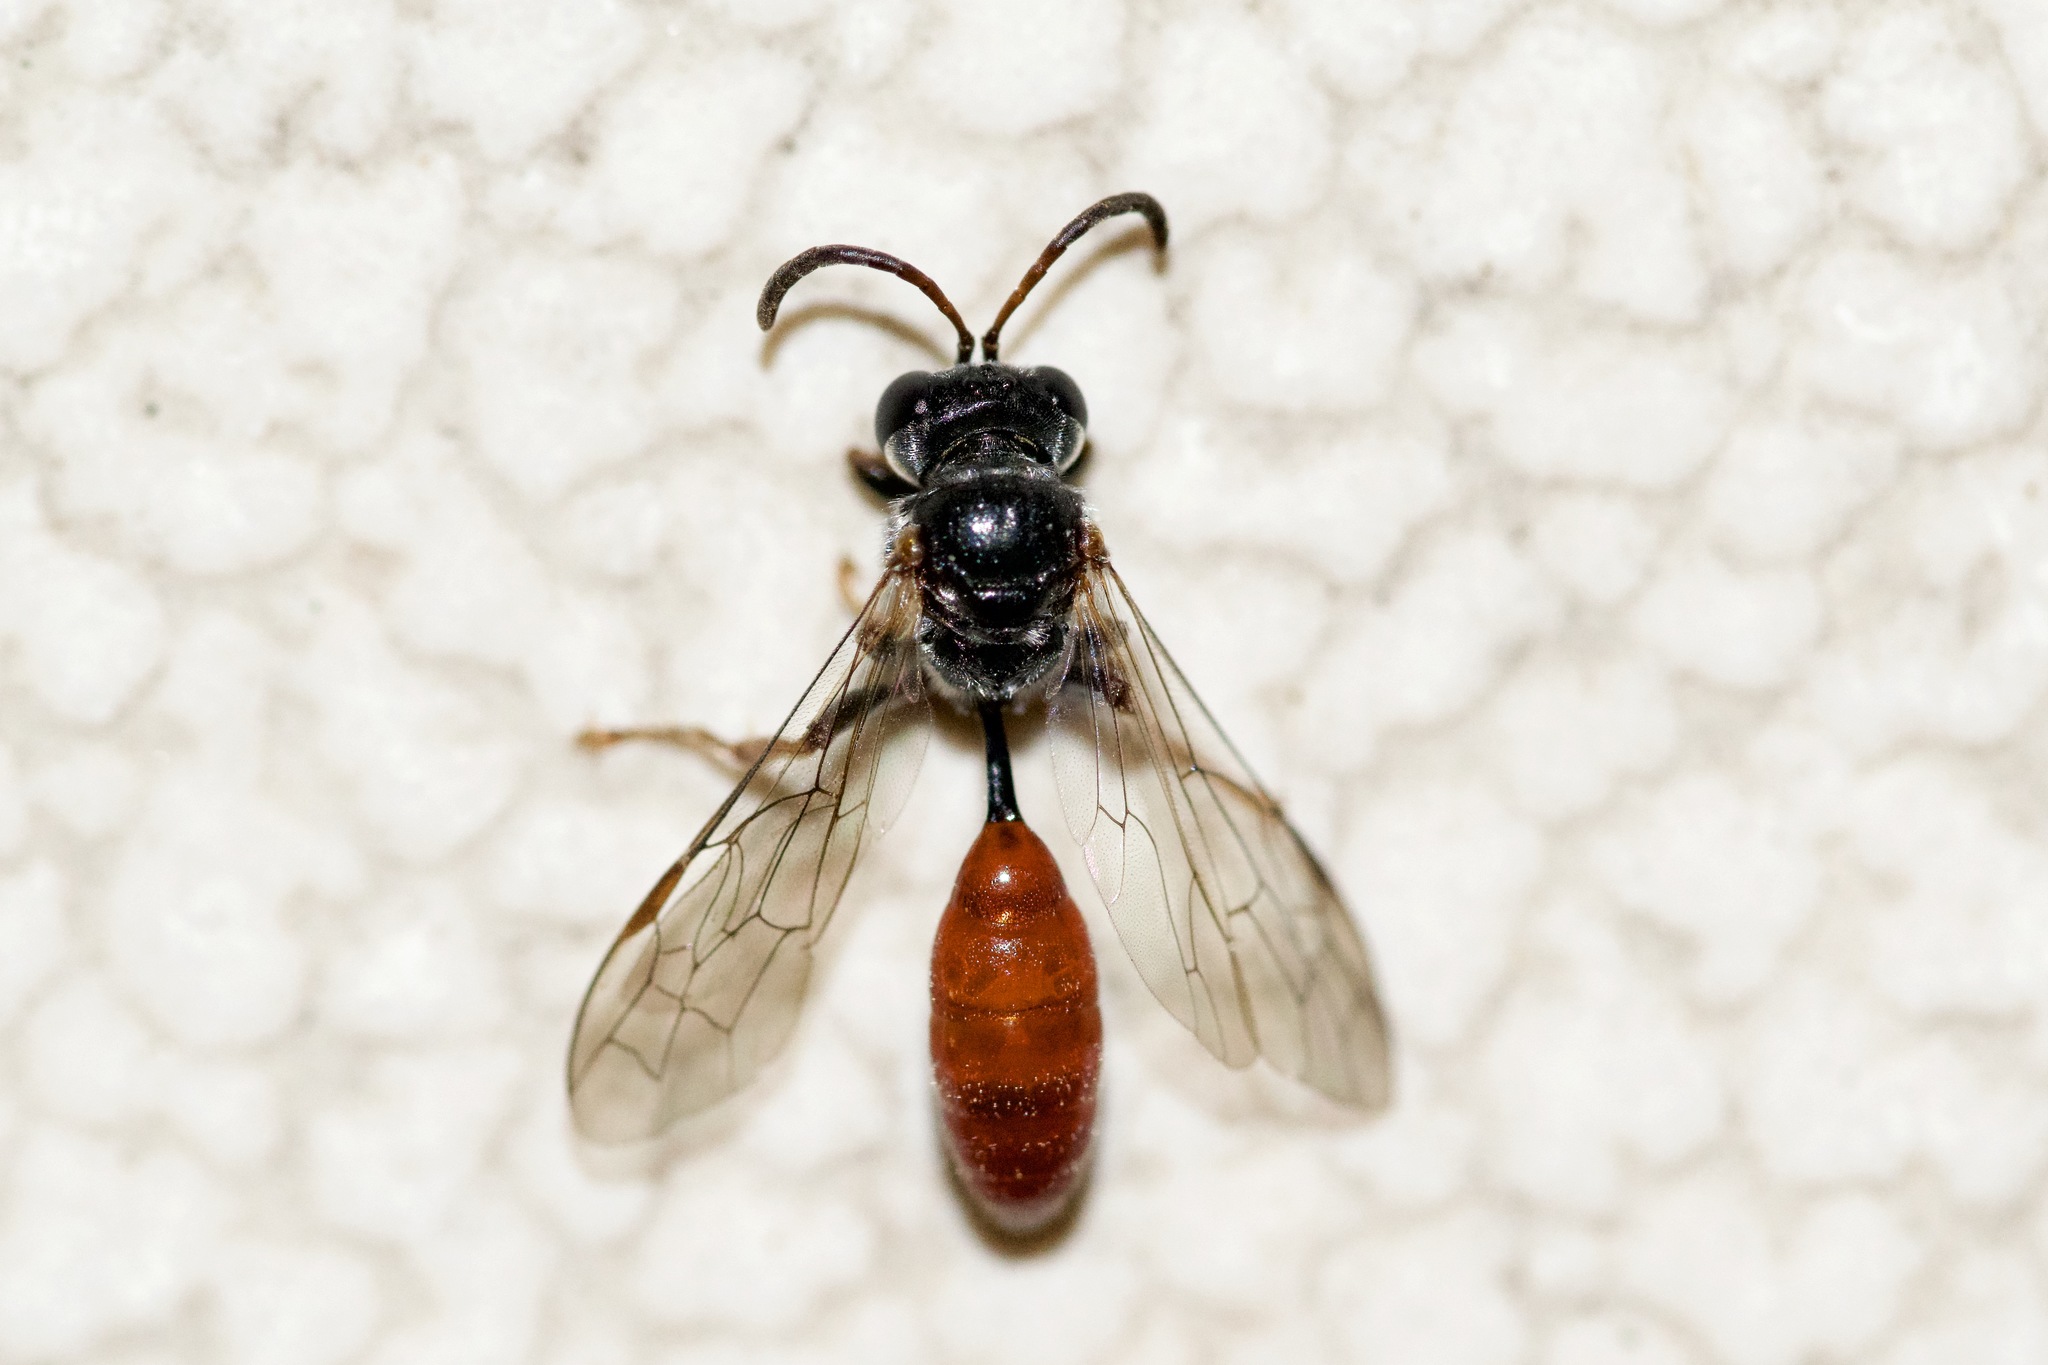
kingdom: Animalia
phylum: Arthropoda
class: Insecta
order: Hymenoptera
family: Crabronidae
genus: Psen
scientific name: Psen monticola
